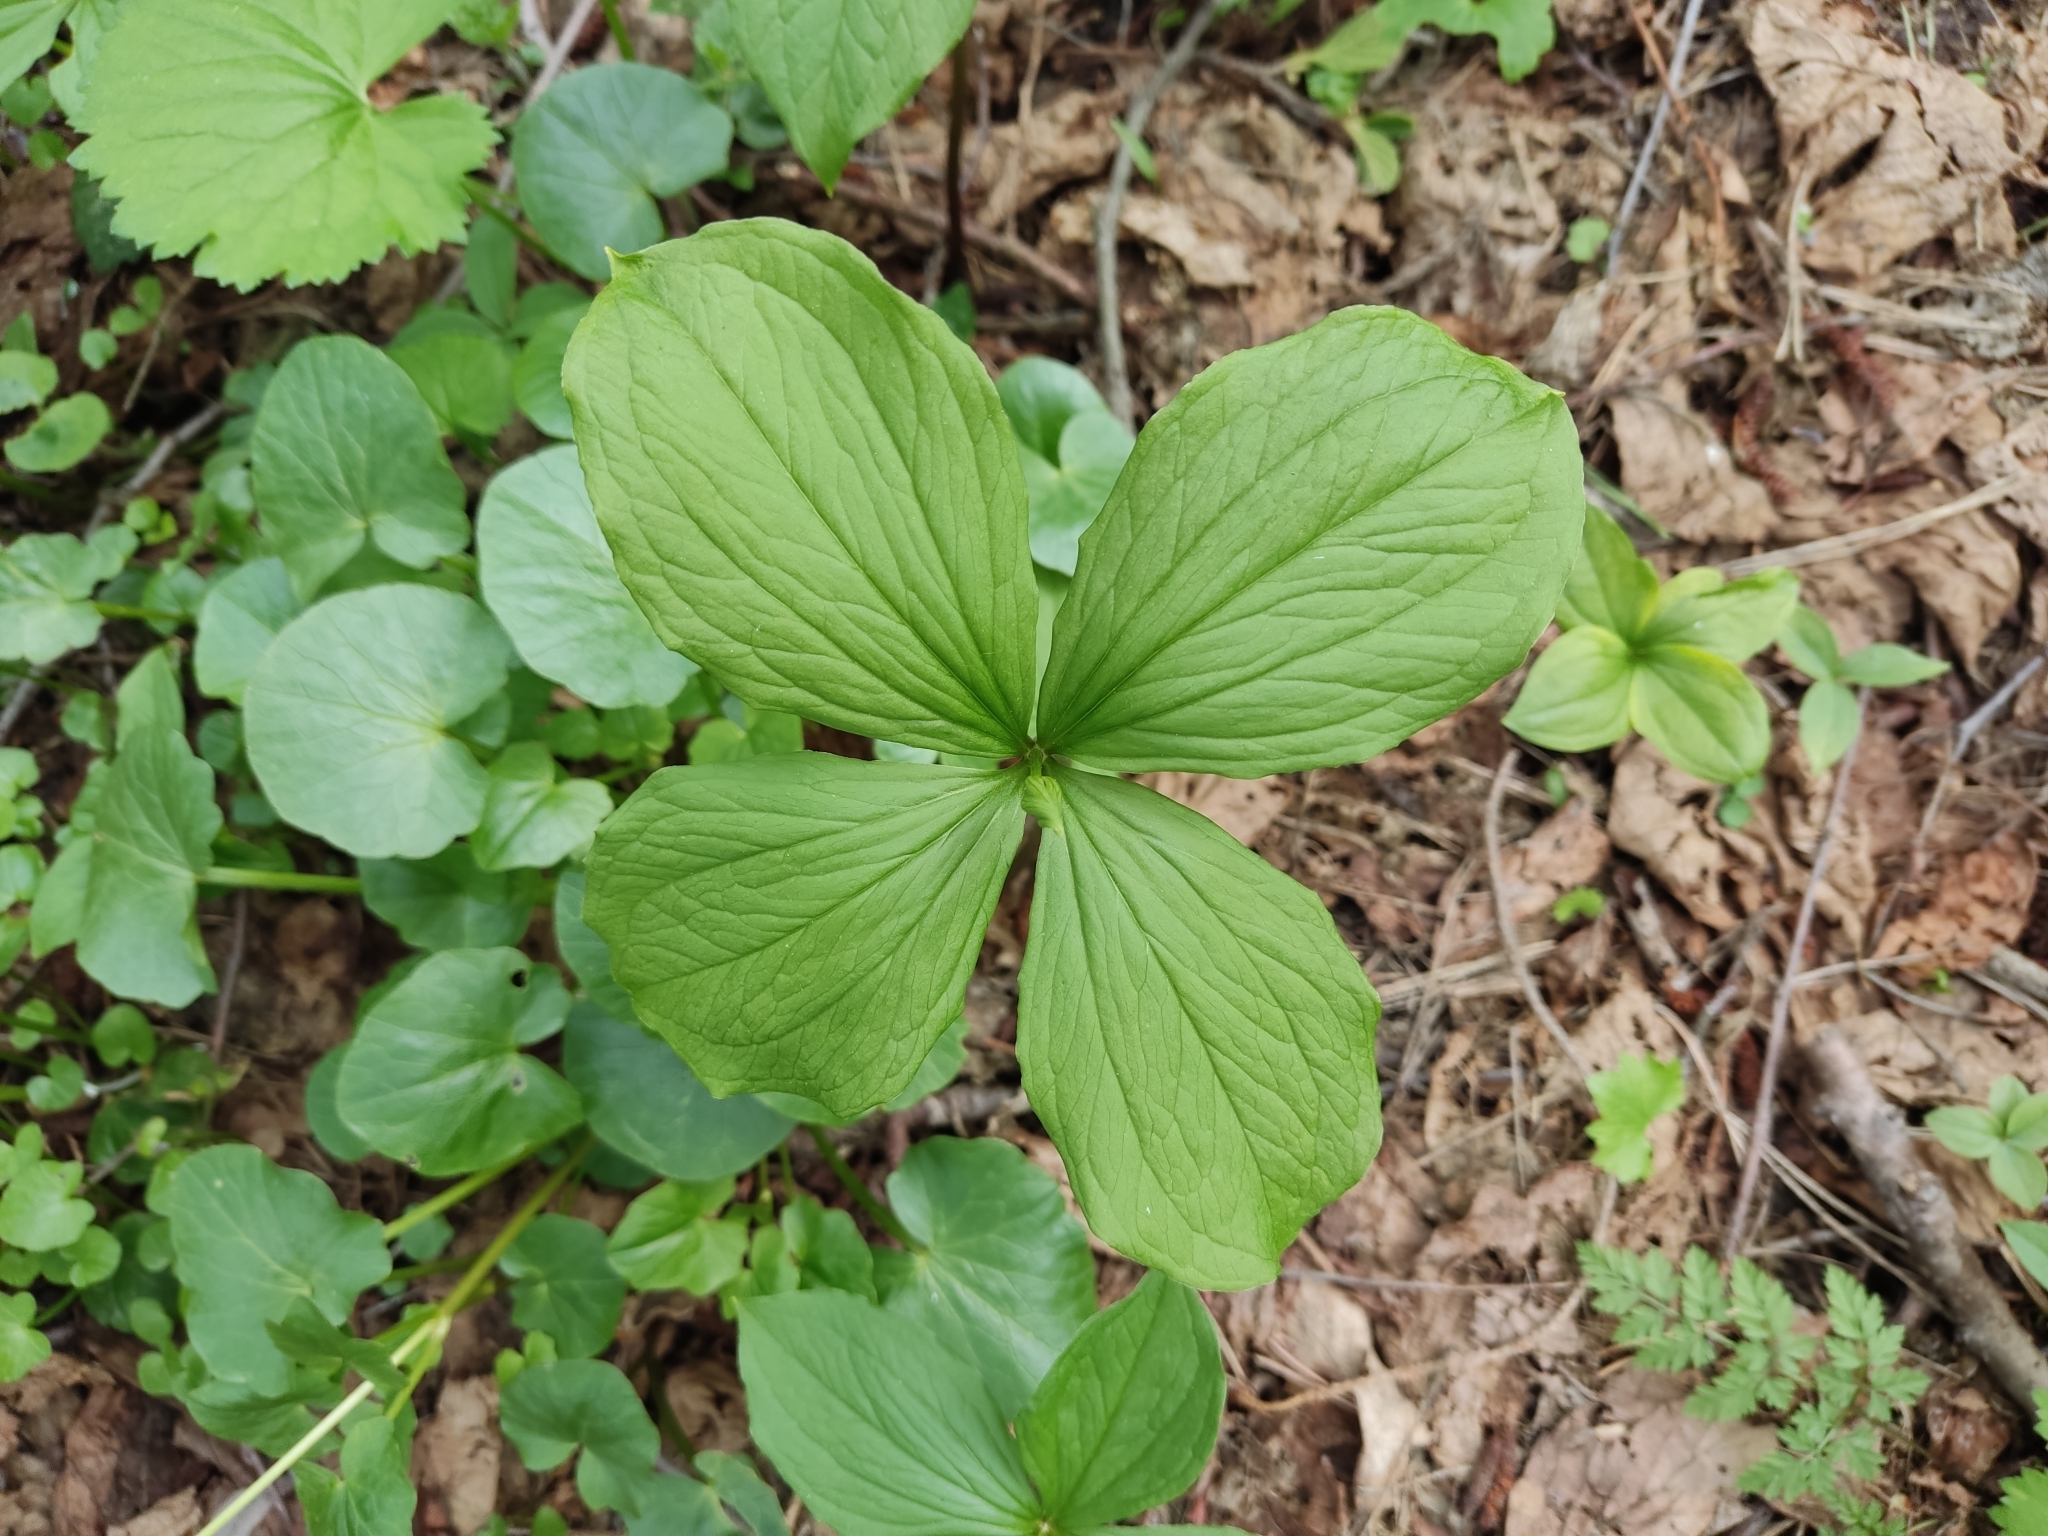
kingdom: Plantae
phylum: Tracheophyta
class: Liliopsida
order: Liliales
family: Melanthiaceae
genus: Paris
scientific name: Paris quadrifolia
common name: Herb-paris
